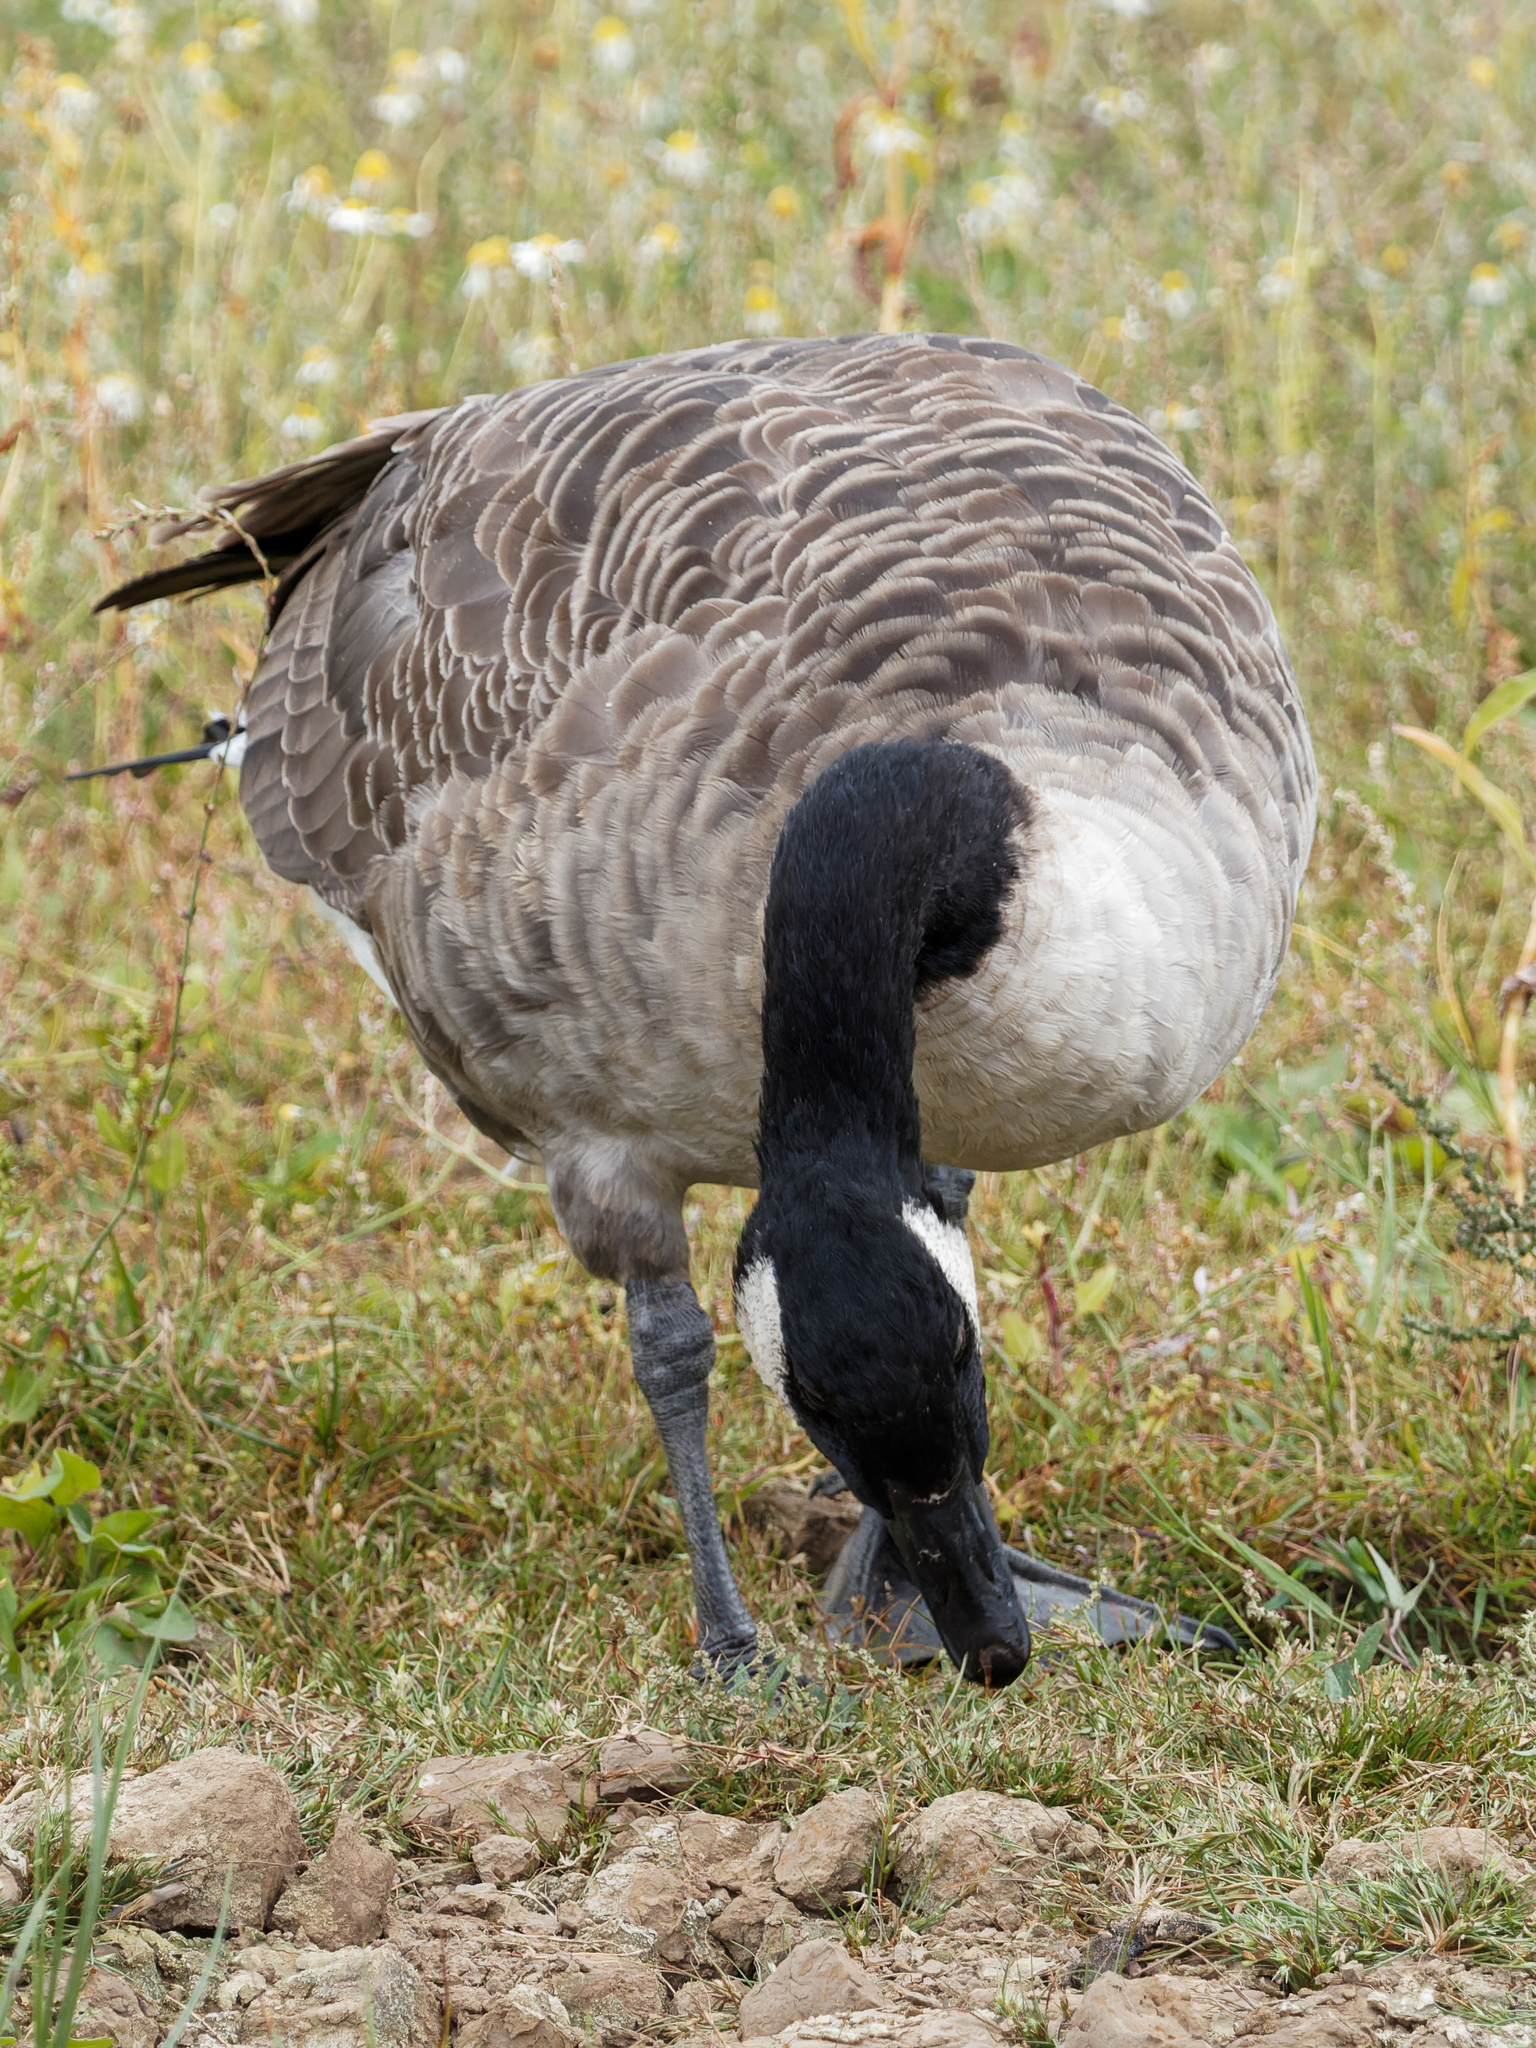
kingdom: Animalia
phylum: Chordata
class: Aves
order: Anseriformes
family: Anatidae
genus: Branta
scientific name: Branta canadensis
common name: Canada goose
